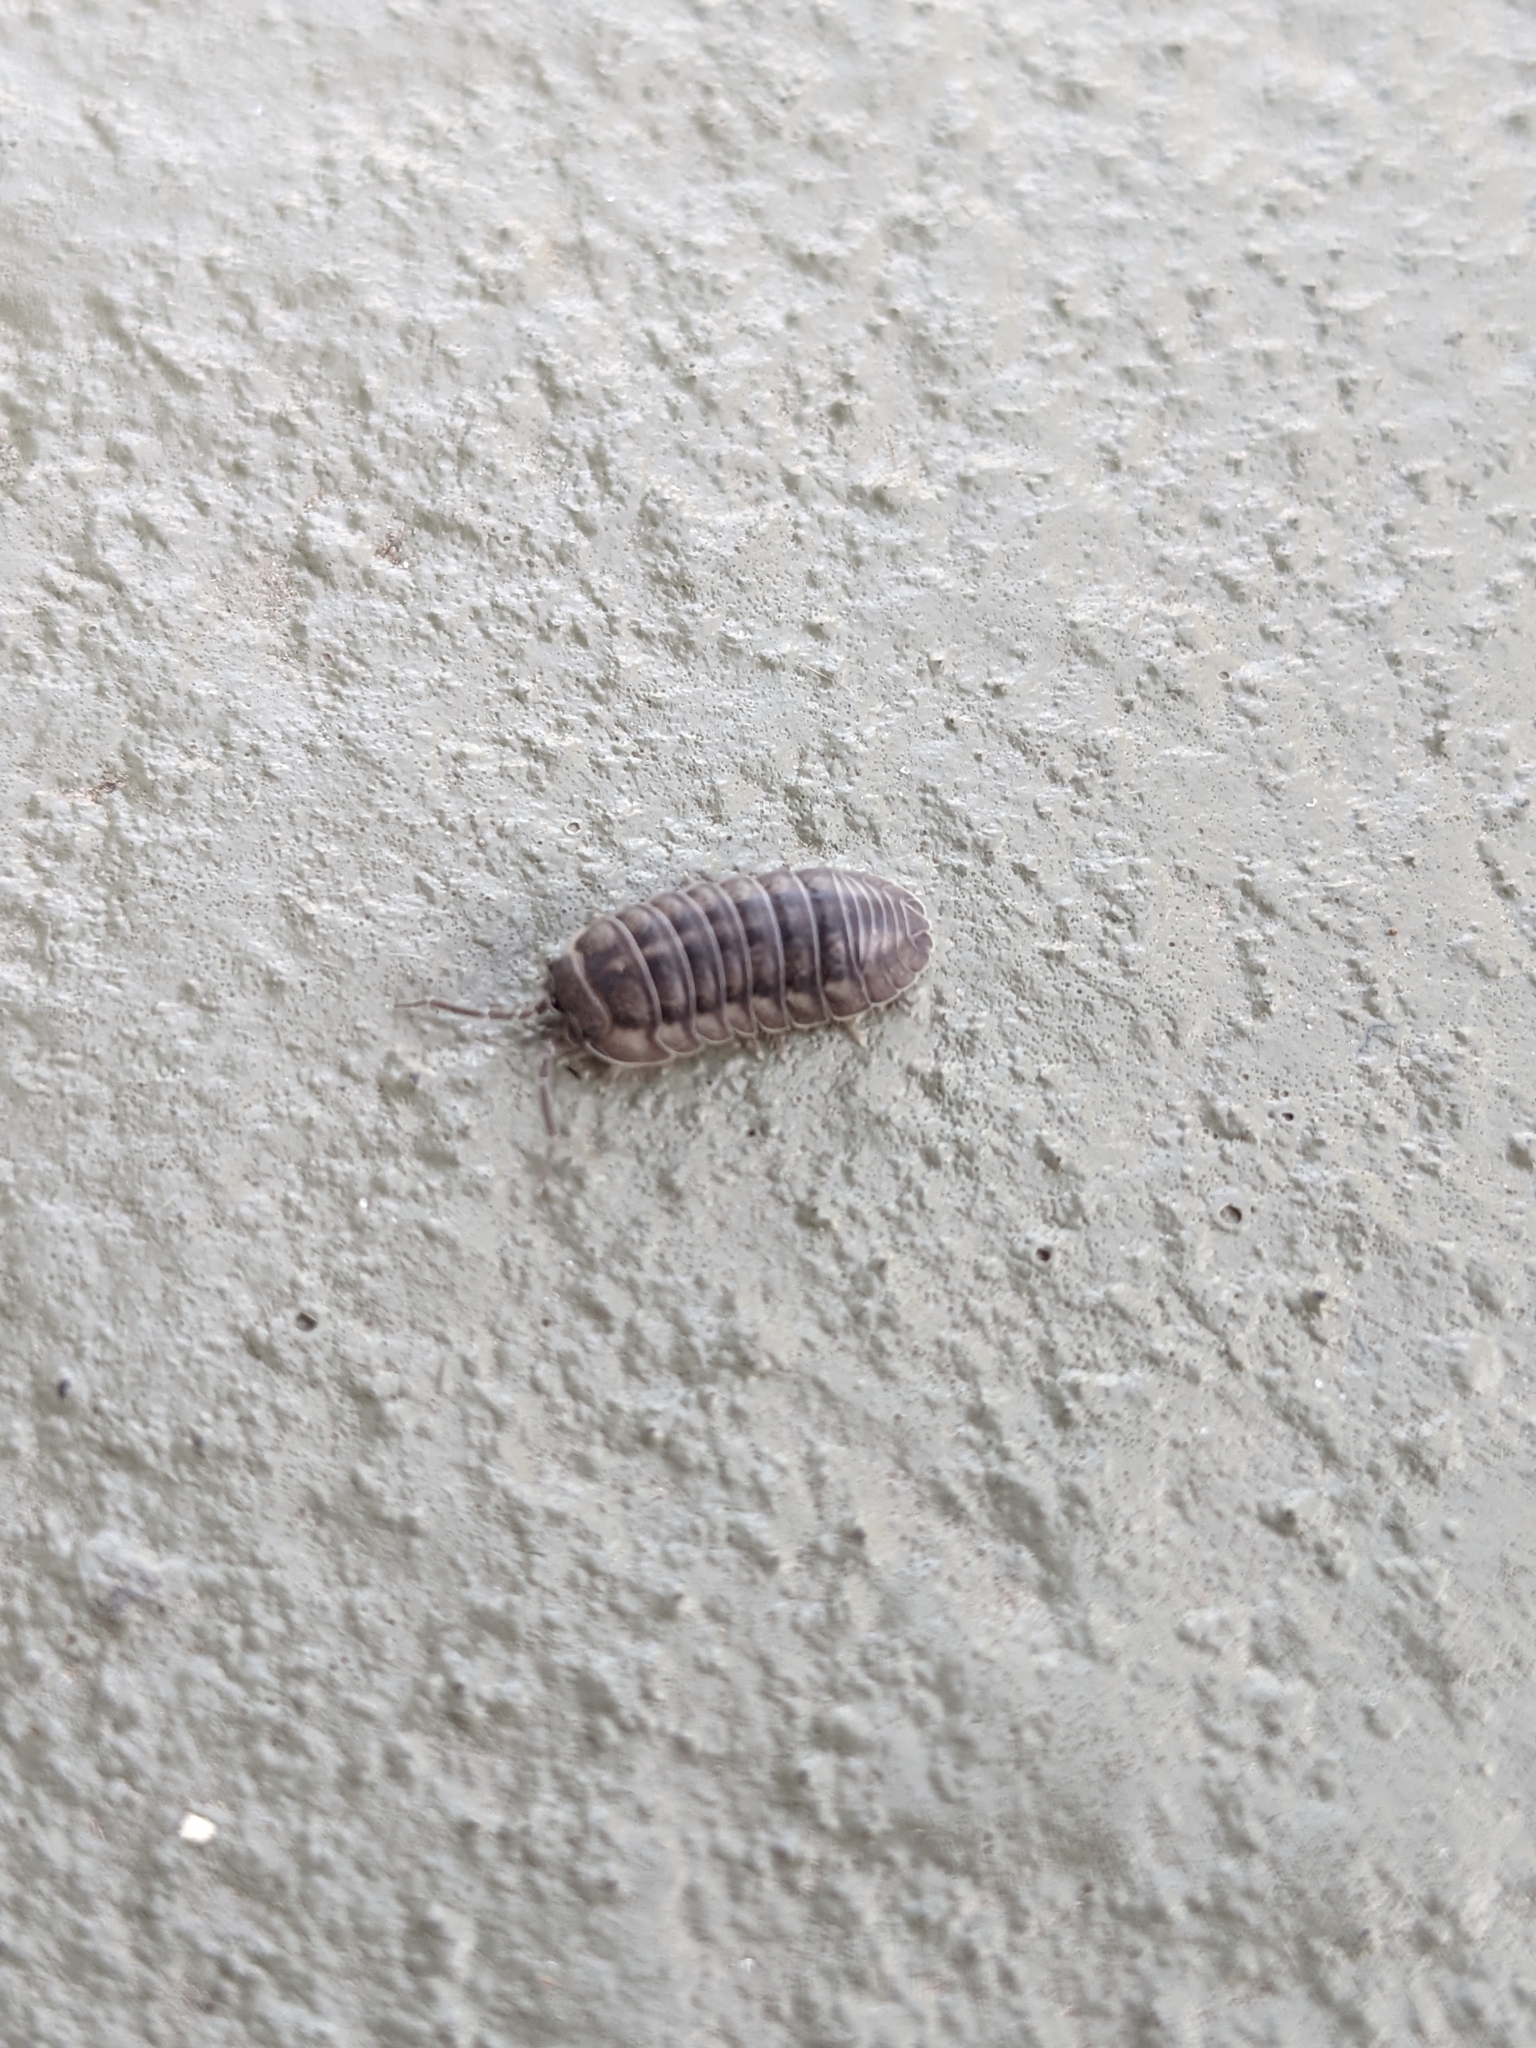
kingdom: Animalia
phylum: Arthropoda
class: Malacostraca
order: Isopoda
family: Armadillidiidae
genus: Armadillidium
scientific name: Armadillidium nasatum
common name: Isopod
